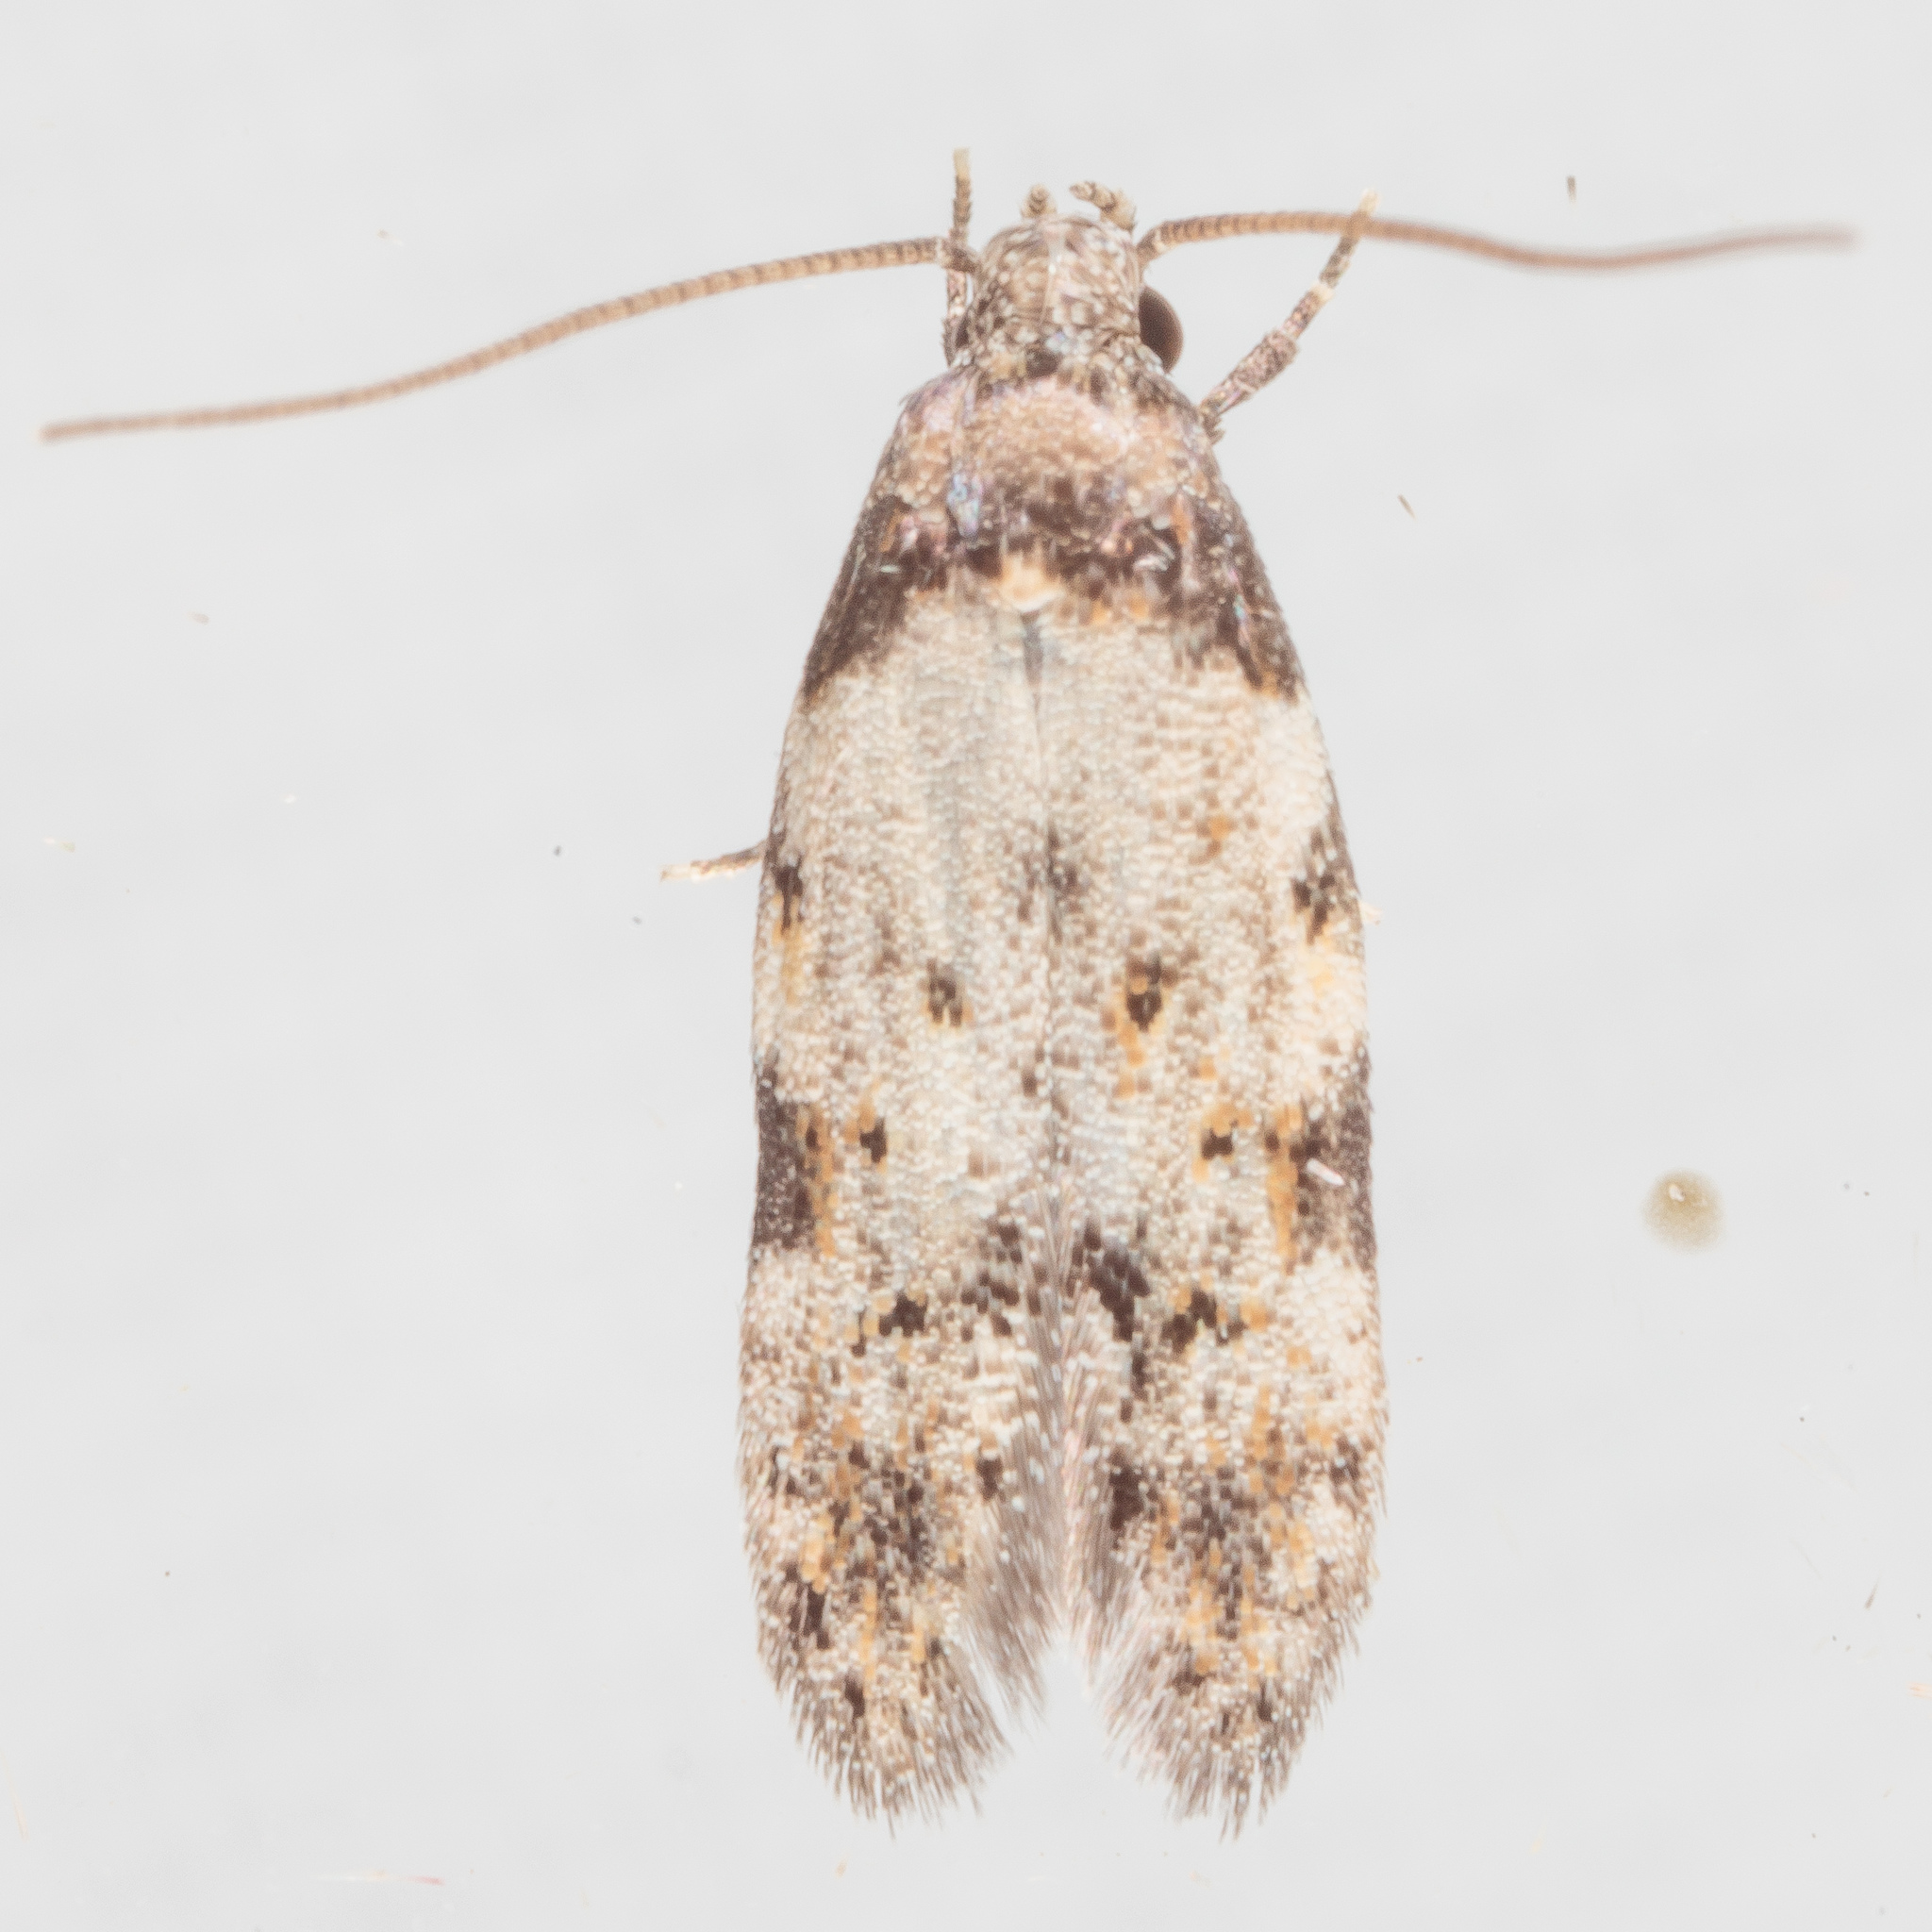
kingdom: Animalia
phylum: Arthropoda
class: Insecta
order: Lepidoptera
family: Autostichidae
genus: Taygete
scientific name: Taygete attributella
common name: Triangle-marked twirler moth
